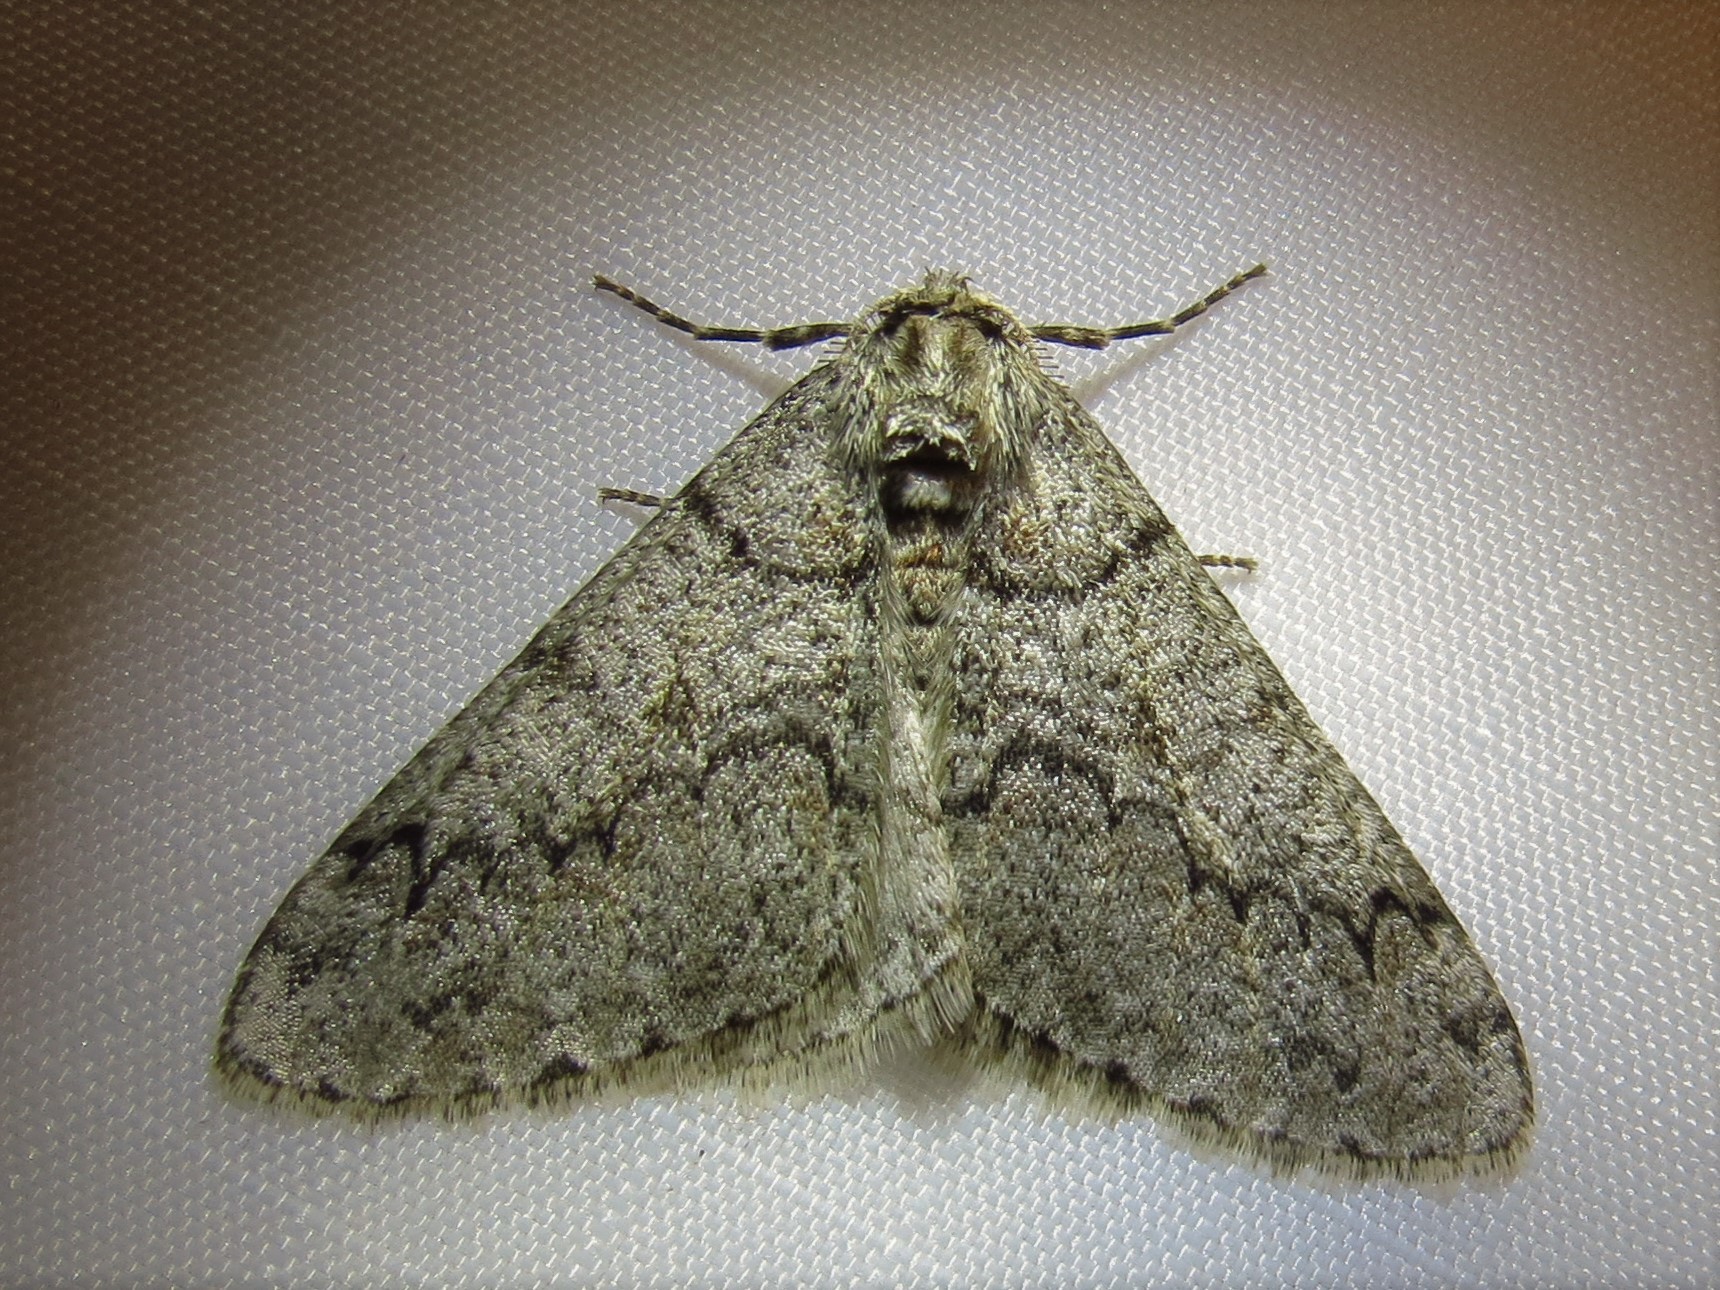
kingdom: Animalia
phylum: Arthropoda
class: Insecta
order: Lepidoptera
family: Geometridae
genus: Phigalia
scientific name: Phigalia denticulata
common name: Toothed phigalia
